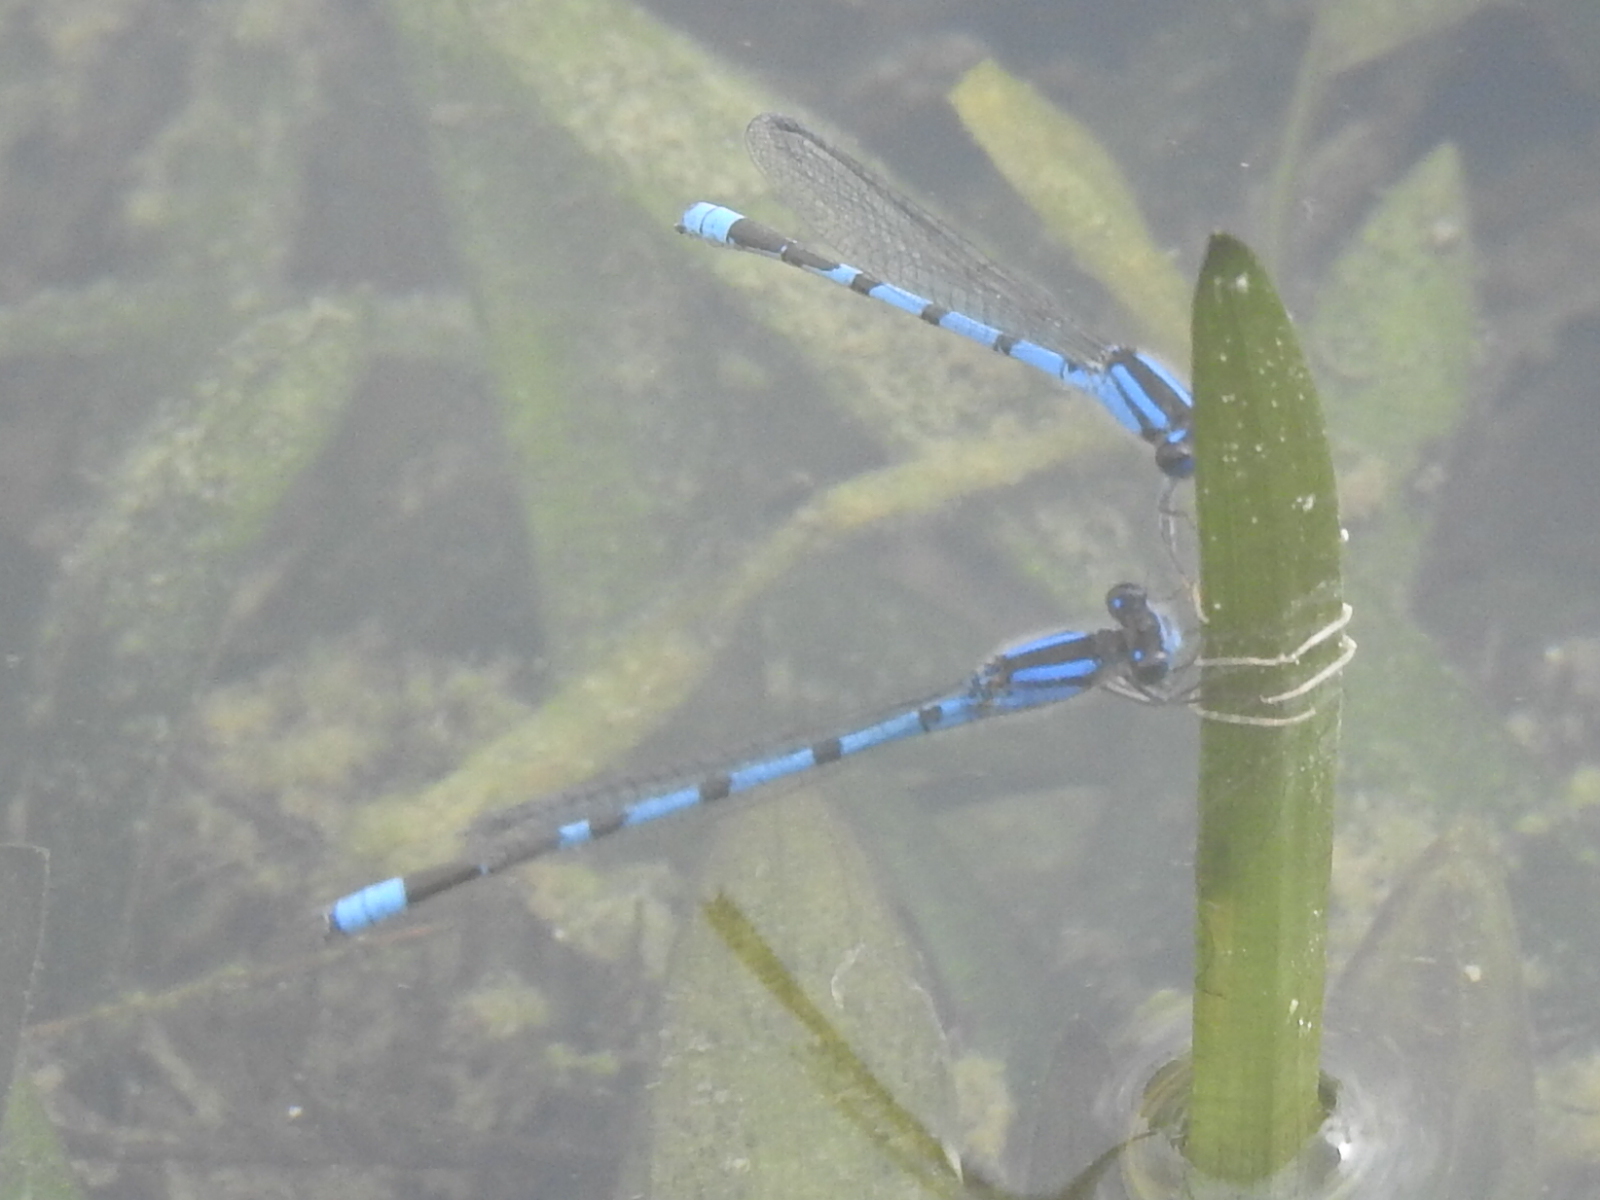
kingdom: Animalia
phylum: Arthropoda
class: Insecta
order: Odonata
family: Coenagrionidae
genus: Enallagma
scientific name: Enallagma civile
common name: Damselfly
